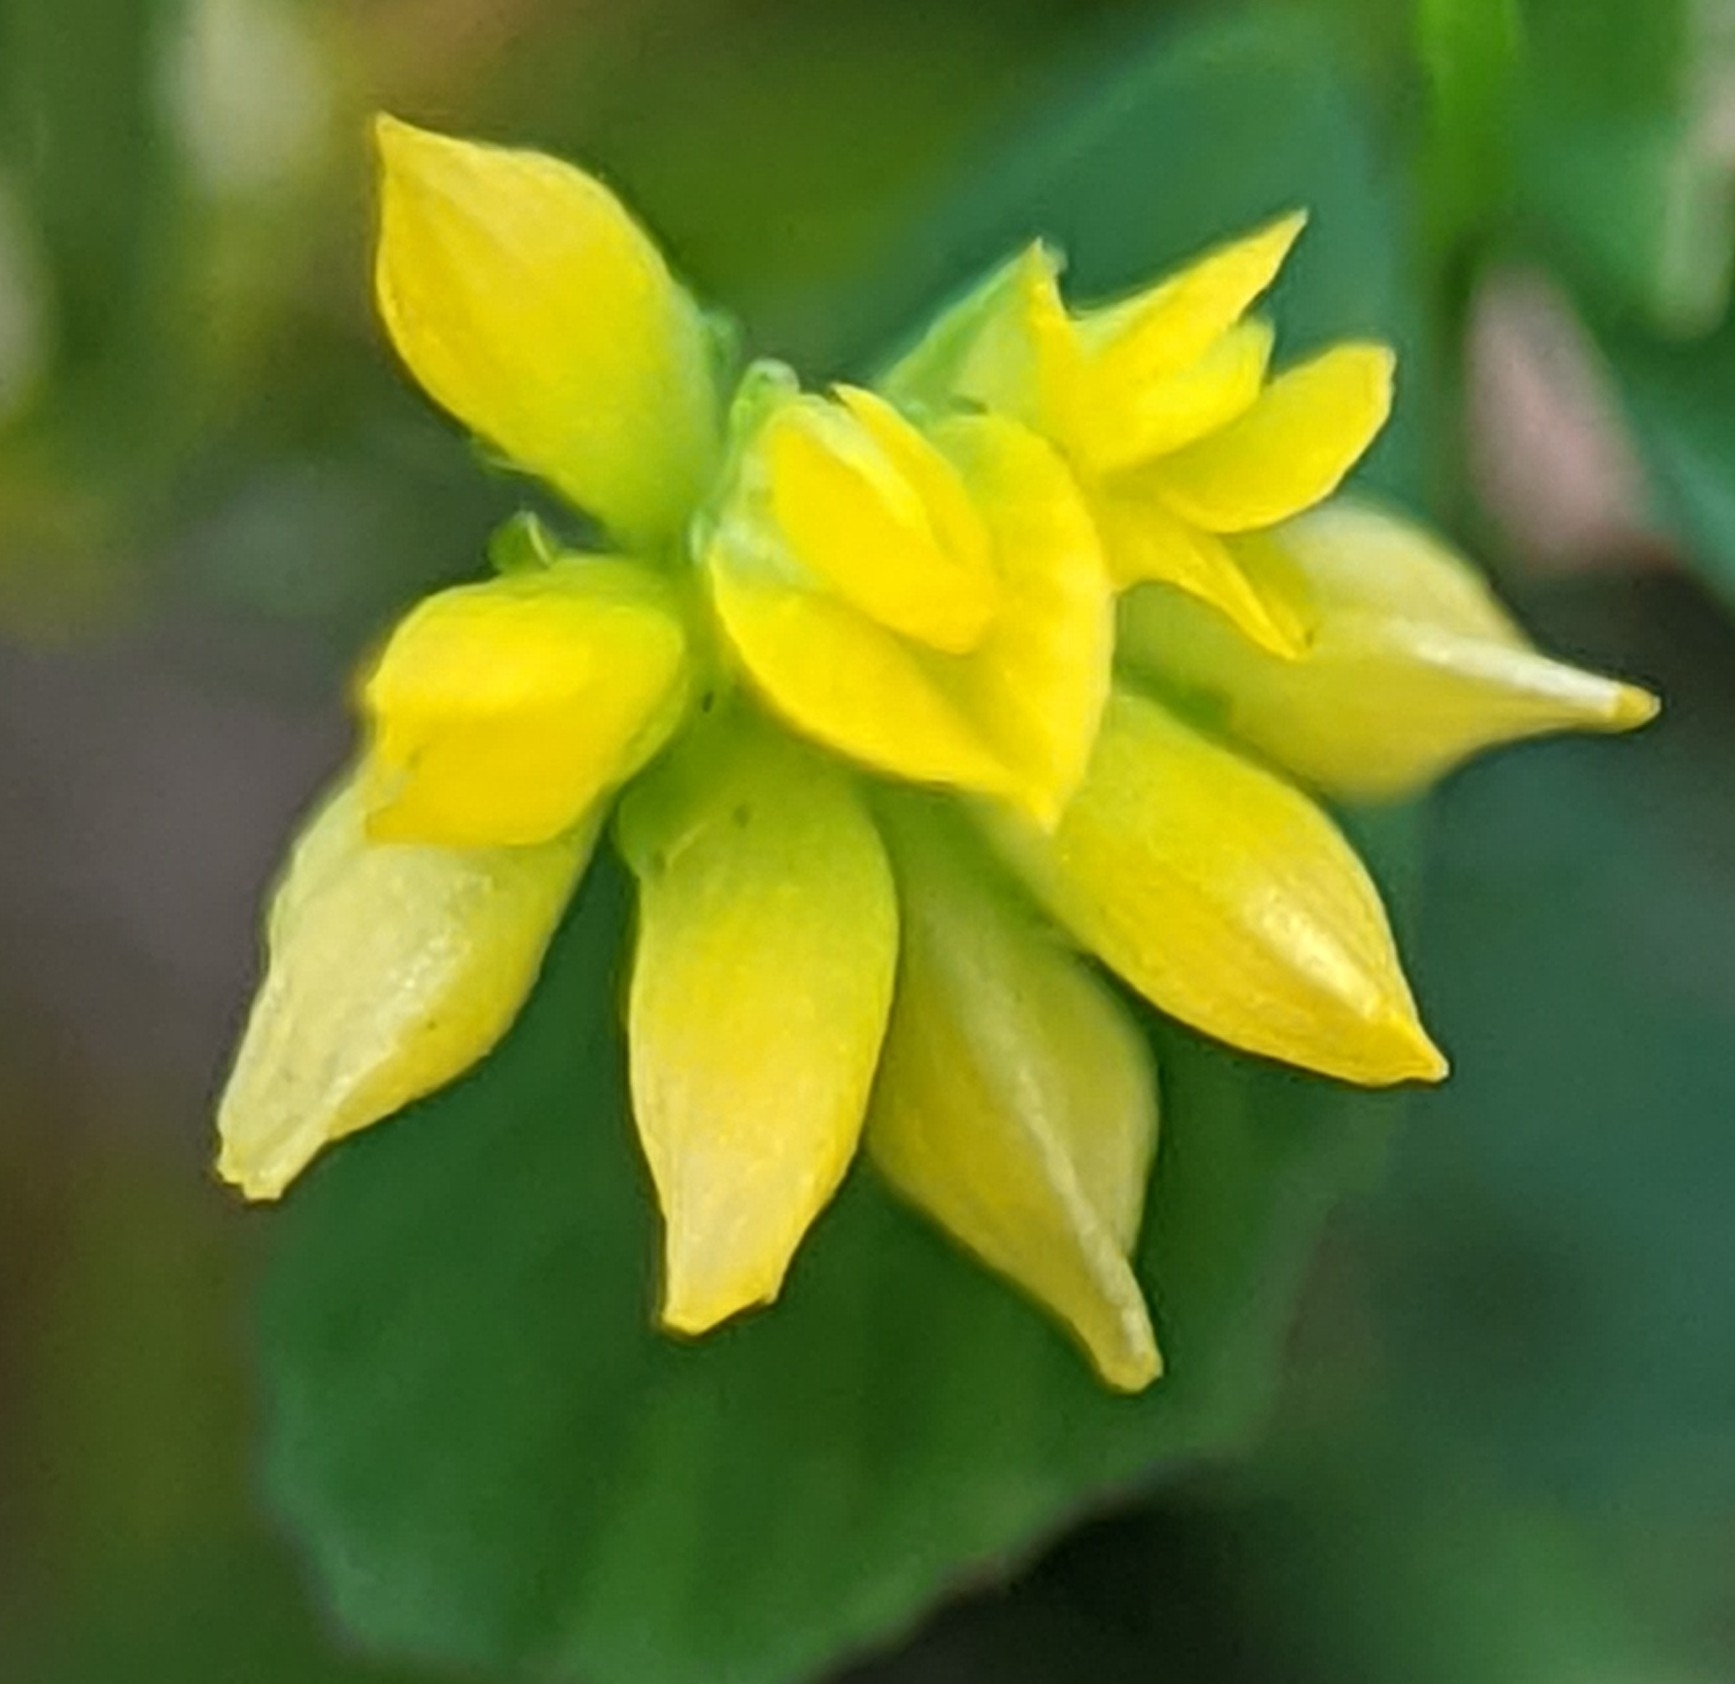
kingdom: Plantae
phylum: Tracheophyta
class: Magnoliopsida
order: Fabales
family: Fabaceae
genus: Trifolium
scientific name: Trifolium dubium
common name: Suckling clover
